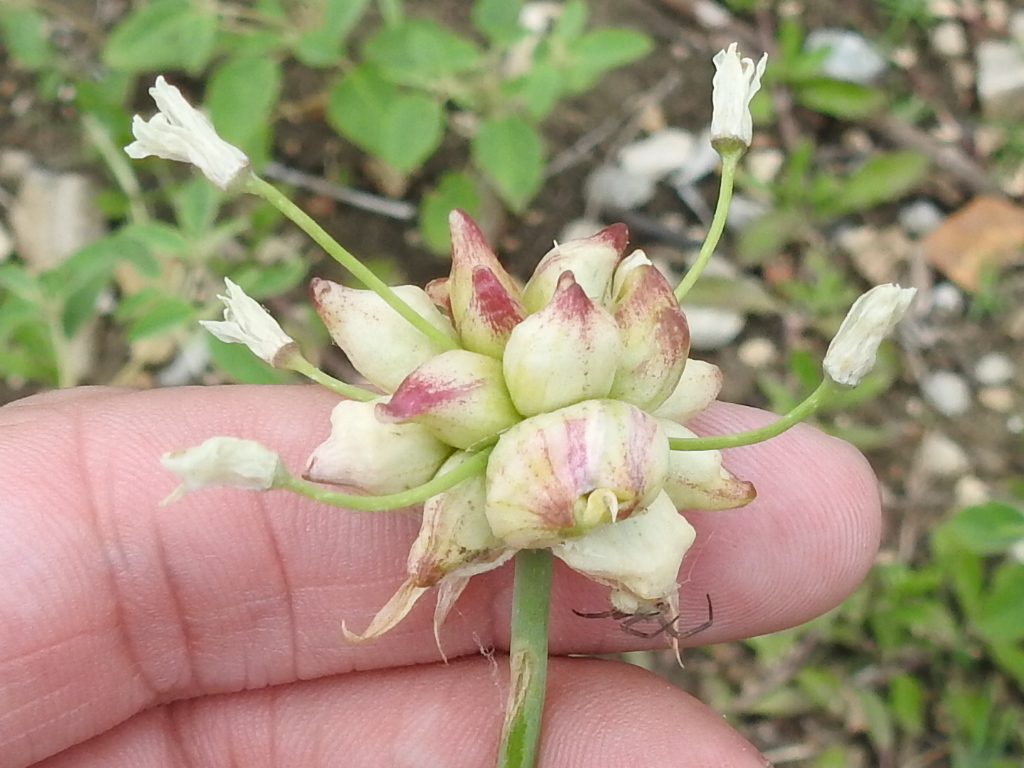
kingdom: Plantae
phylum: Tracheophyta
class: Liliopsida
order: Asparagales
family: Amaryllidaceae
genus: Allium
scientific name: Allium canadense
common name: Meadow garlic
